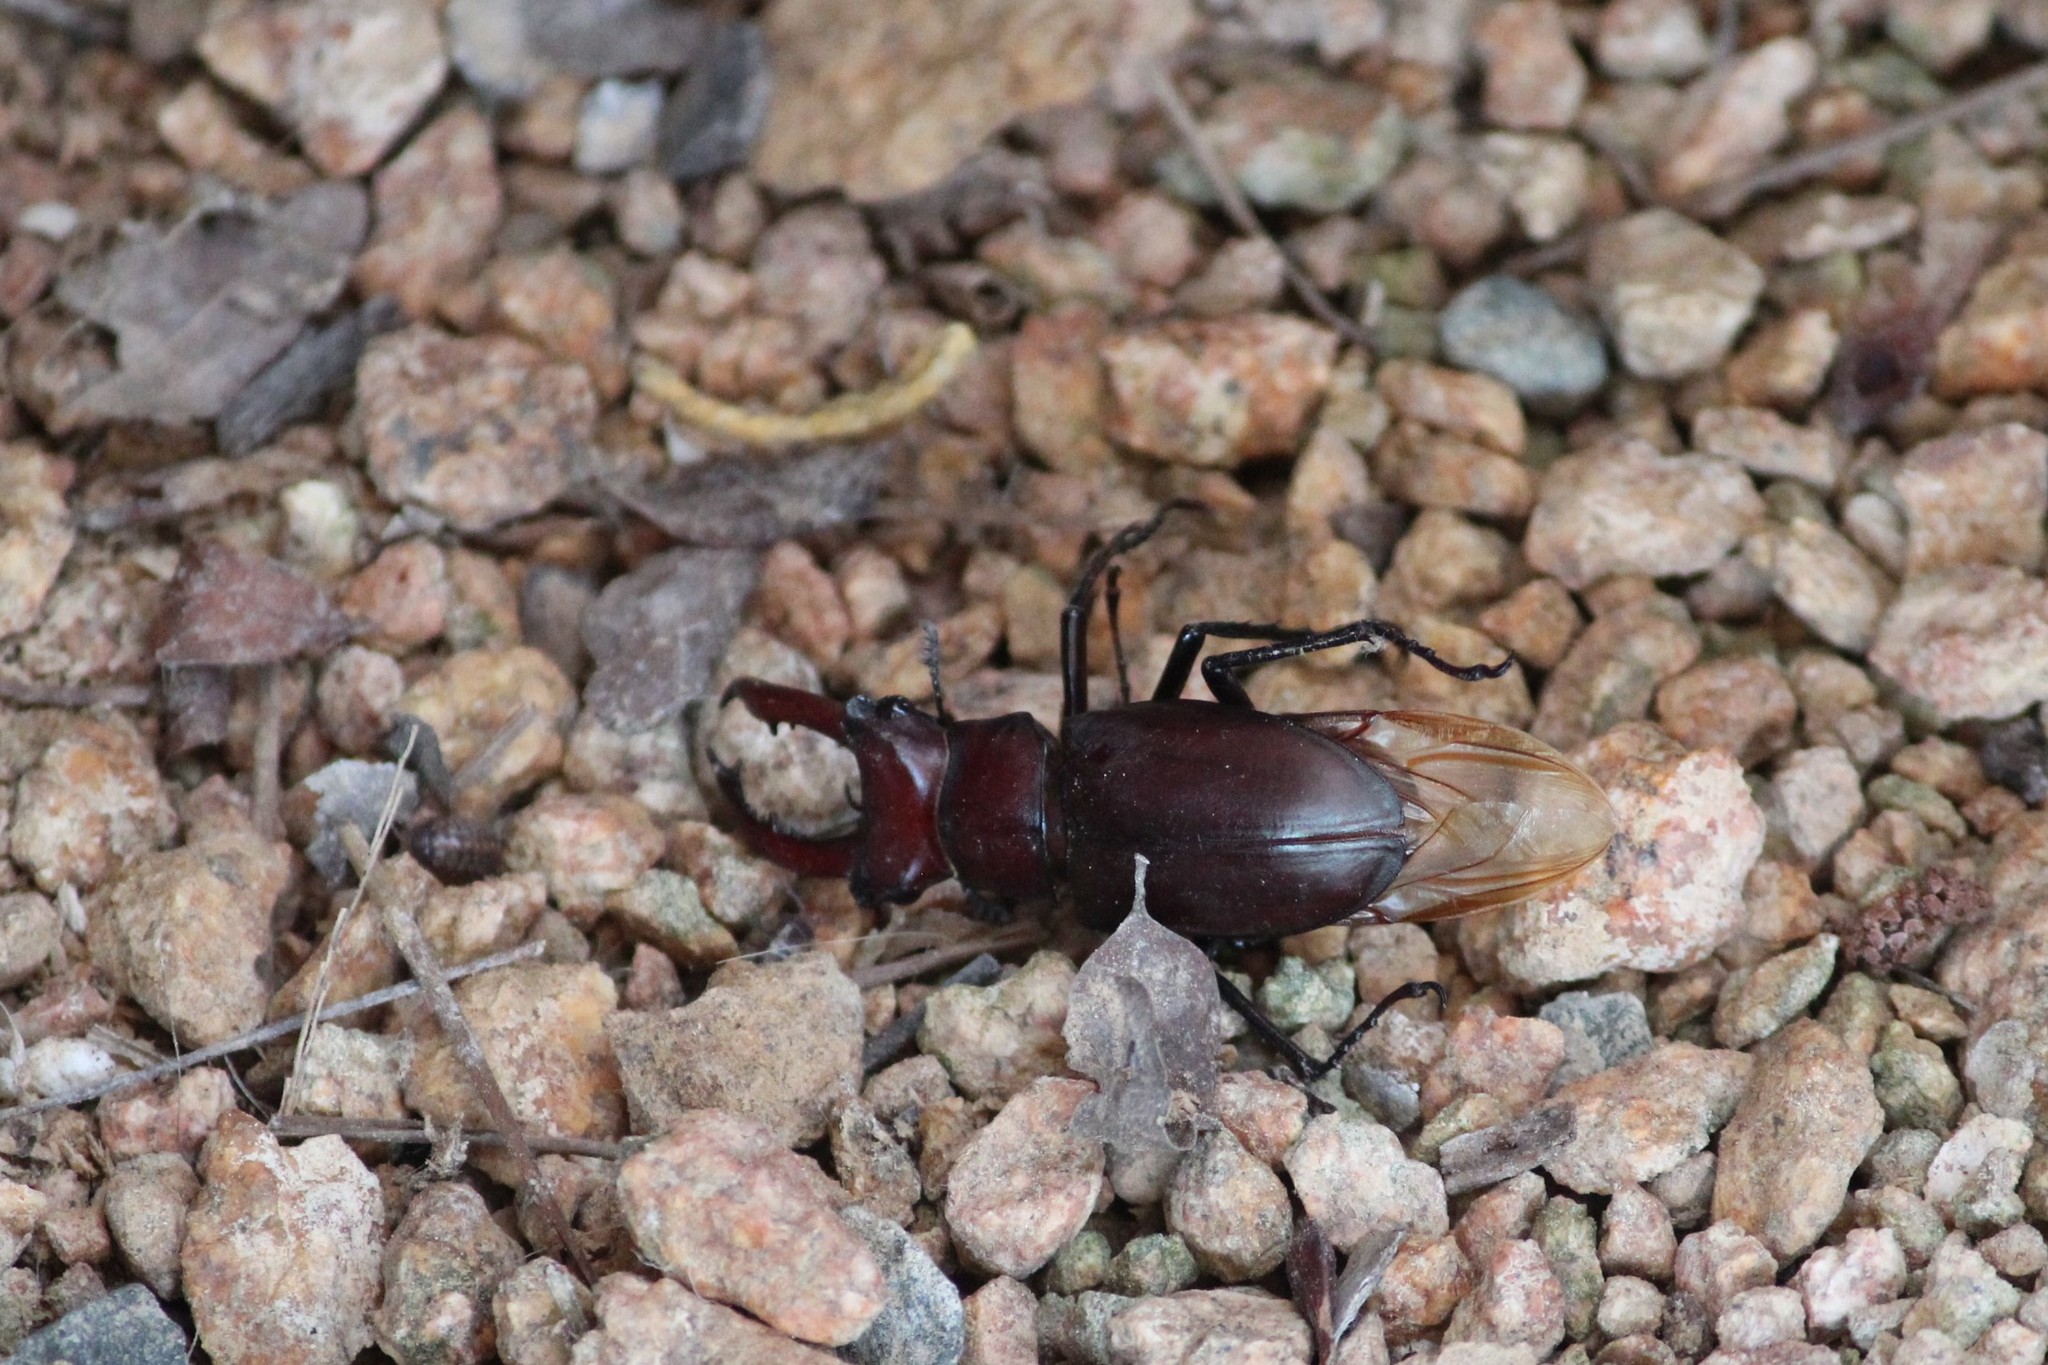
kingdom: Animalia
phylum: Arthropoda
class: Insecta
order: Coleoptera
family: Lucanidae
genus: Lucanus
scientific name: Lucanus elaphus
